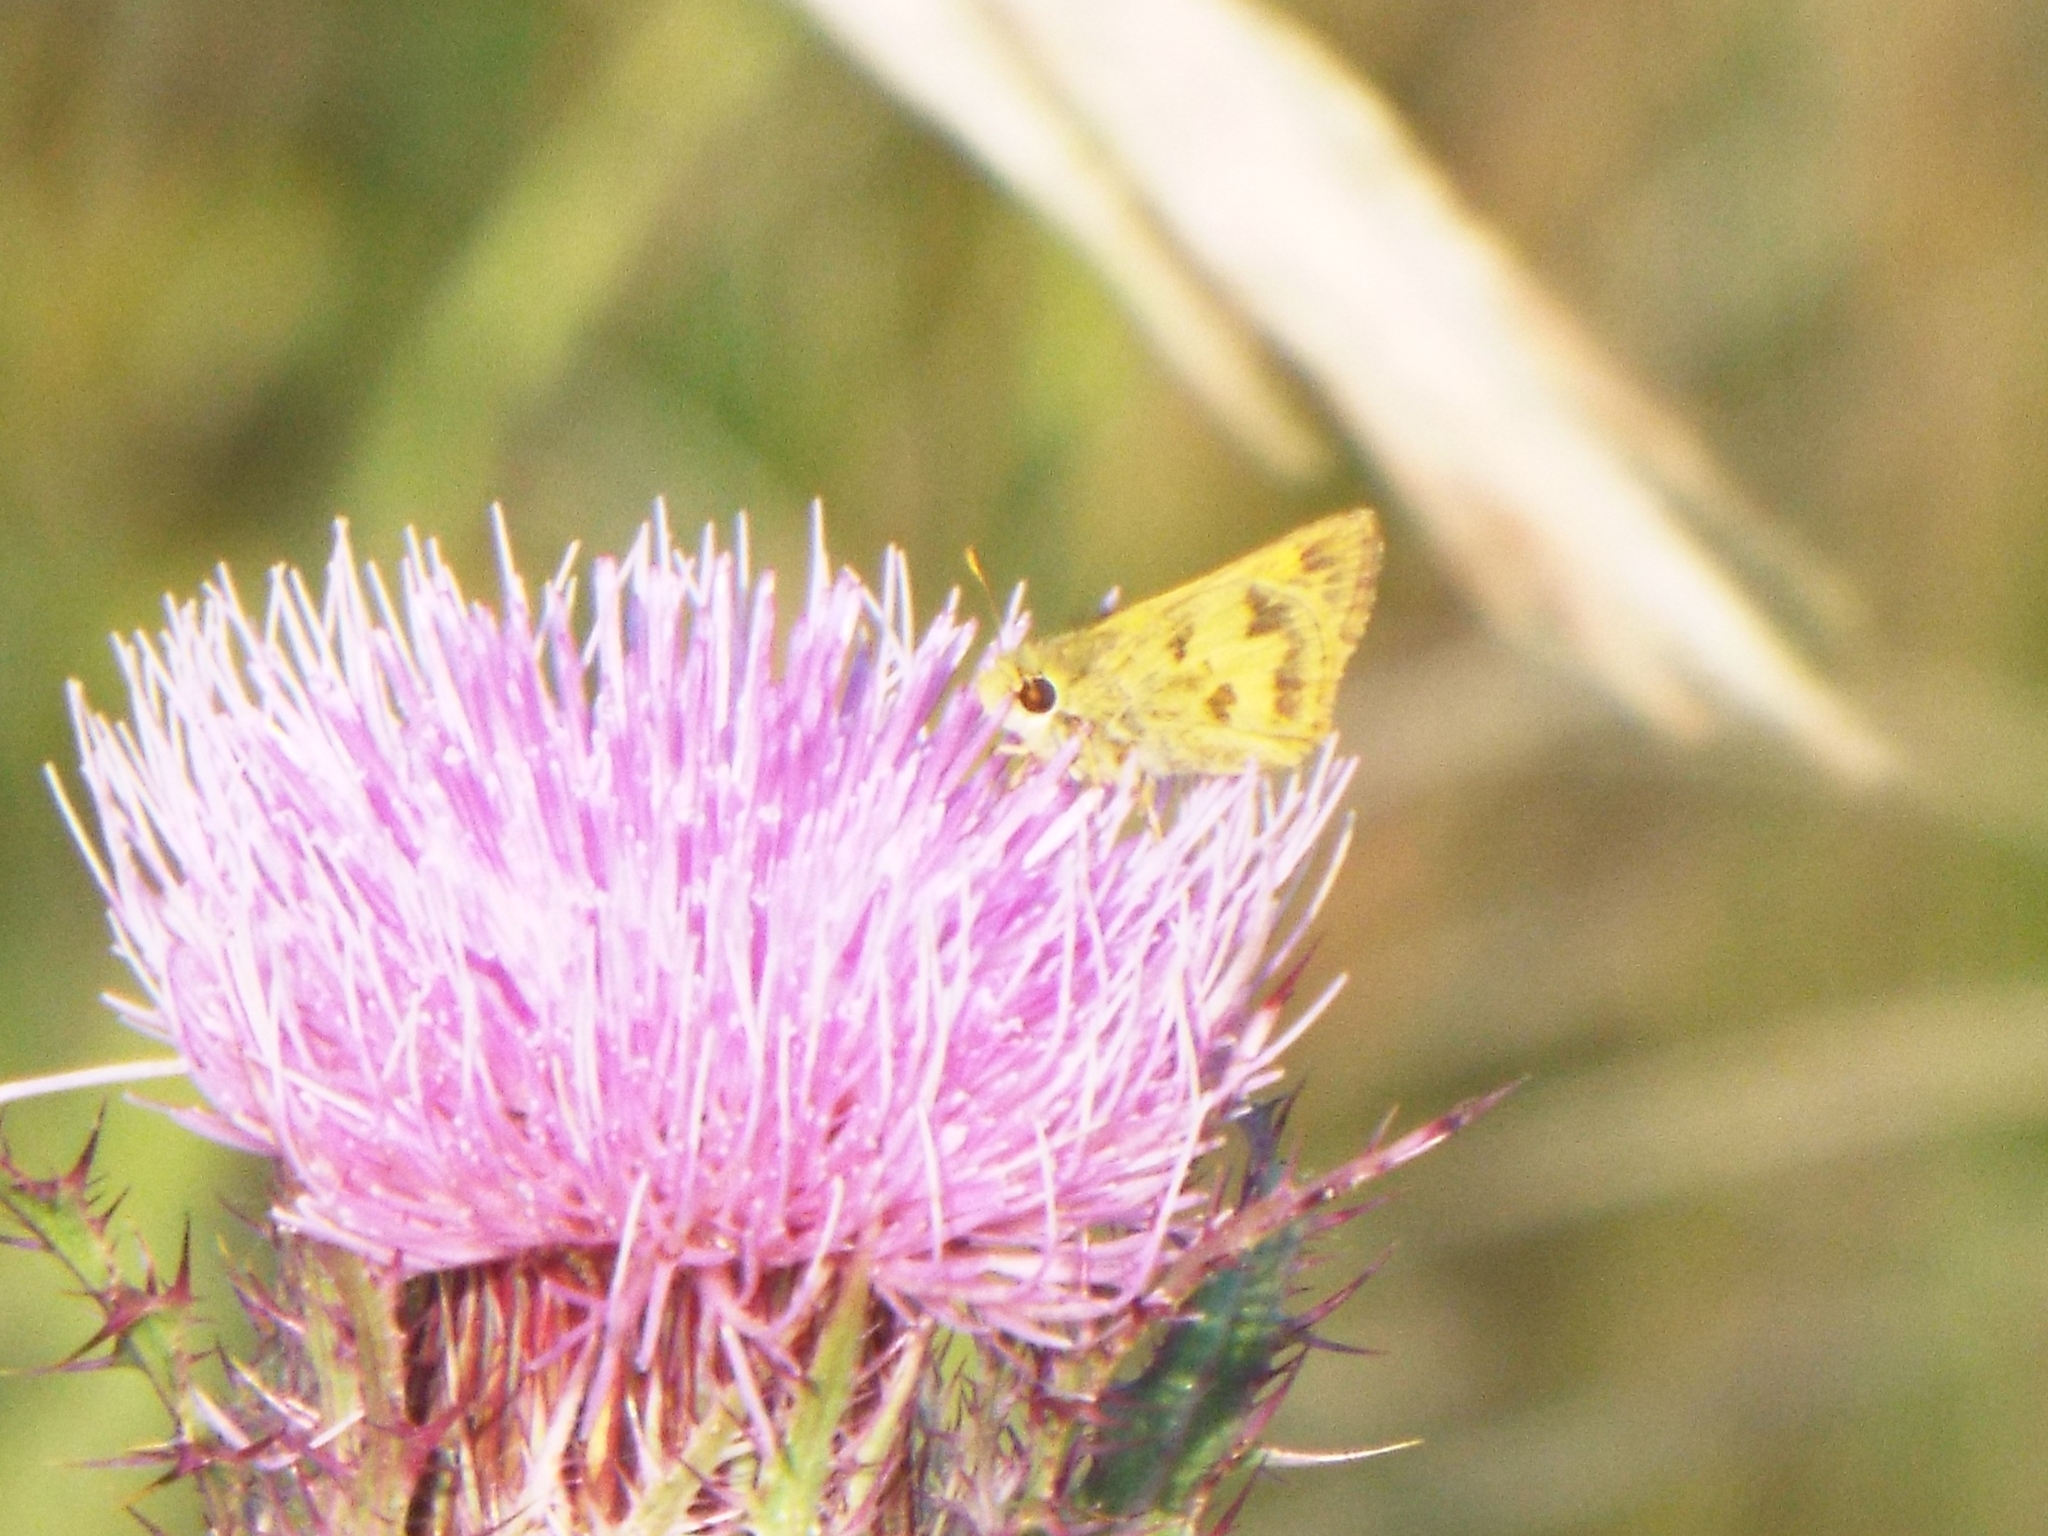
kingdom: Animalia
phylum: Arthropoda
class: Insecta
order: Lepidoptera
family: Hesperiidae
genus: Polites
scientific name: Polites vibex
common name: Whirlabout
